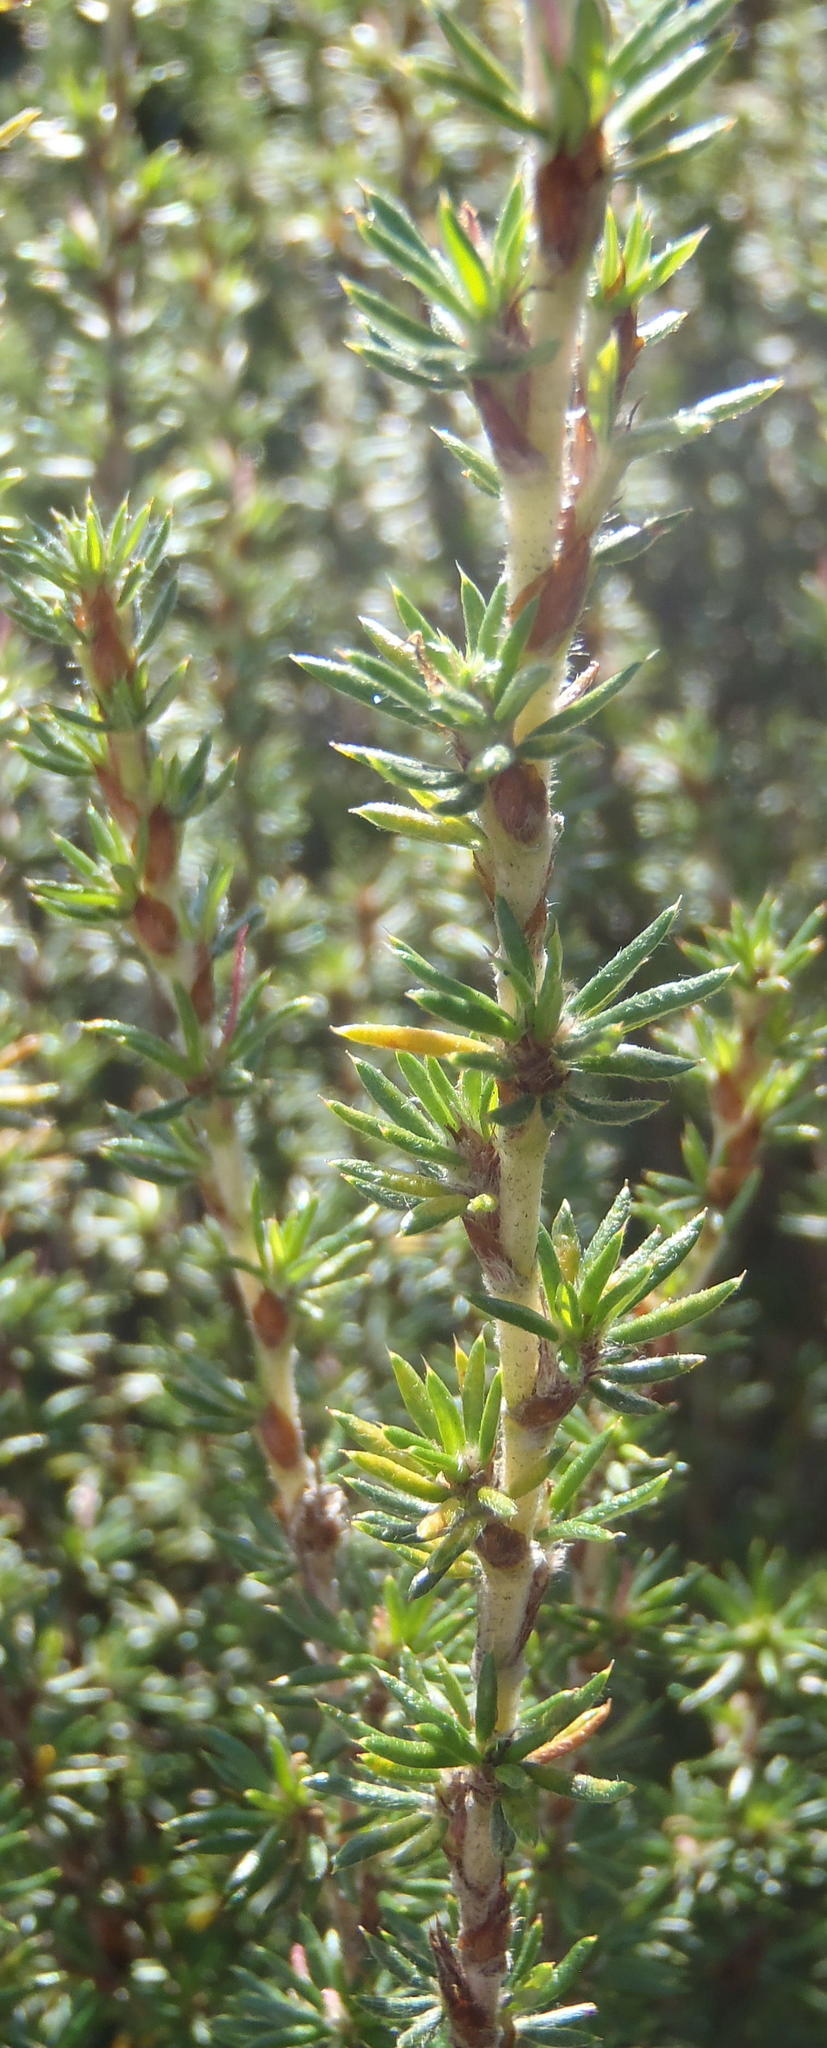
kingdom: Plantae
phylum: Tracheophyta
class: Magnoliopsida
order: Rosales
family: Rosaceae
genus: Cliffortia
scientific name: Cliffortia stricta
